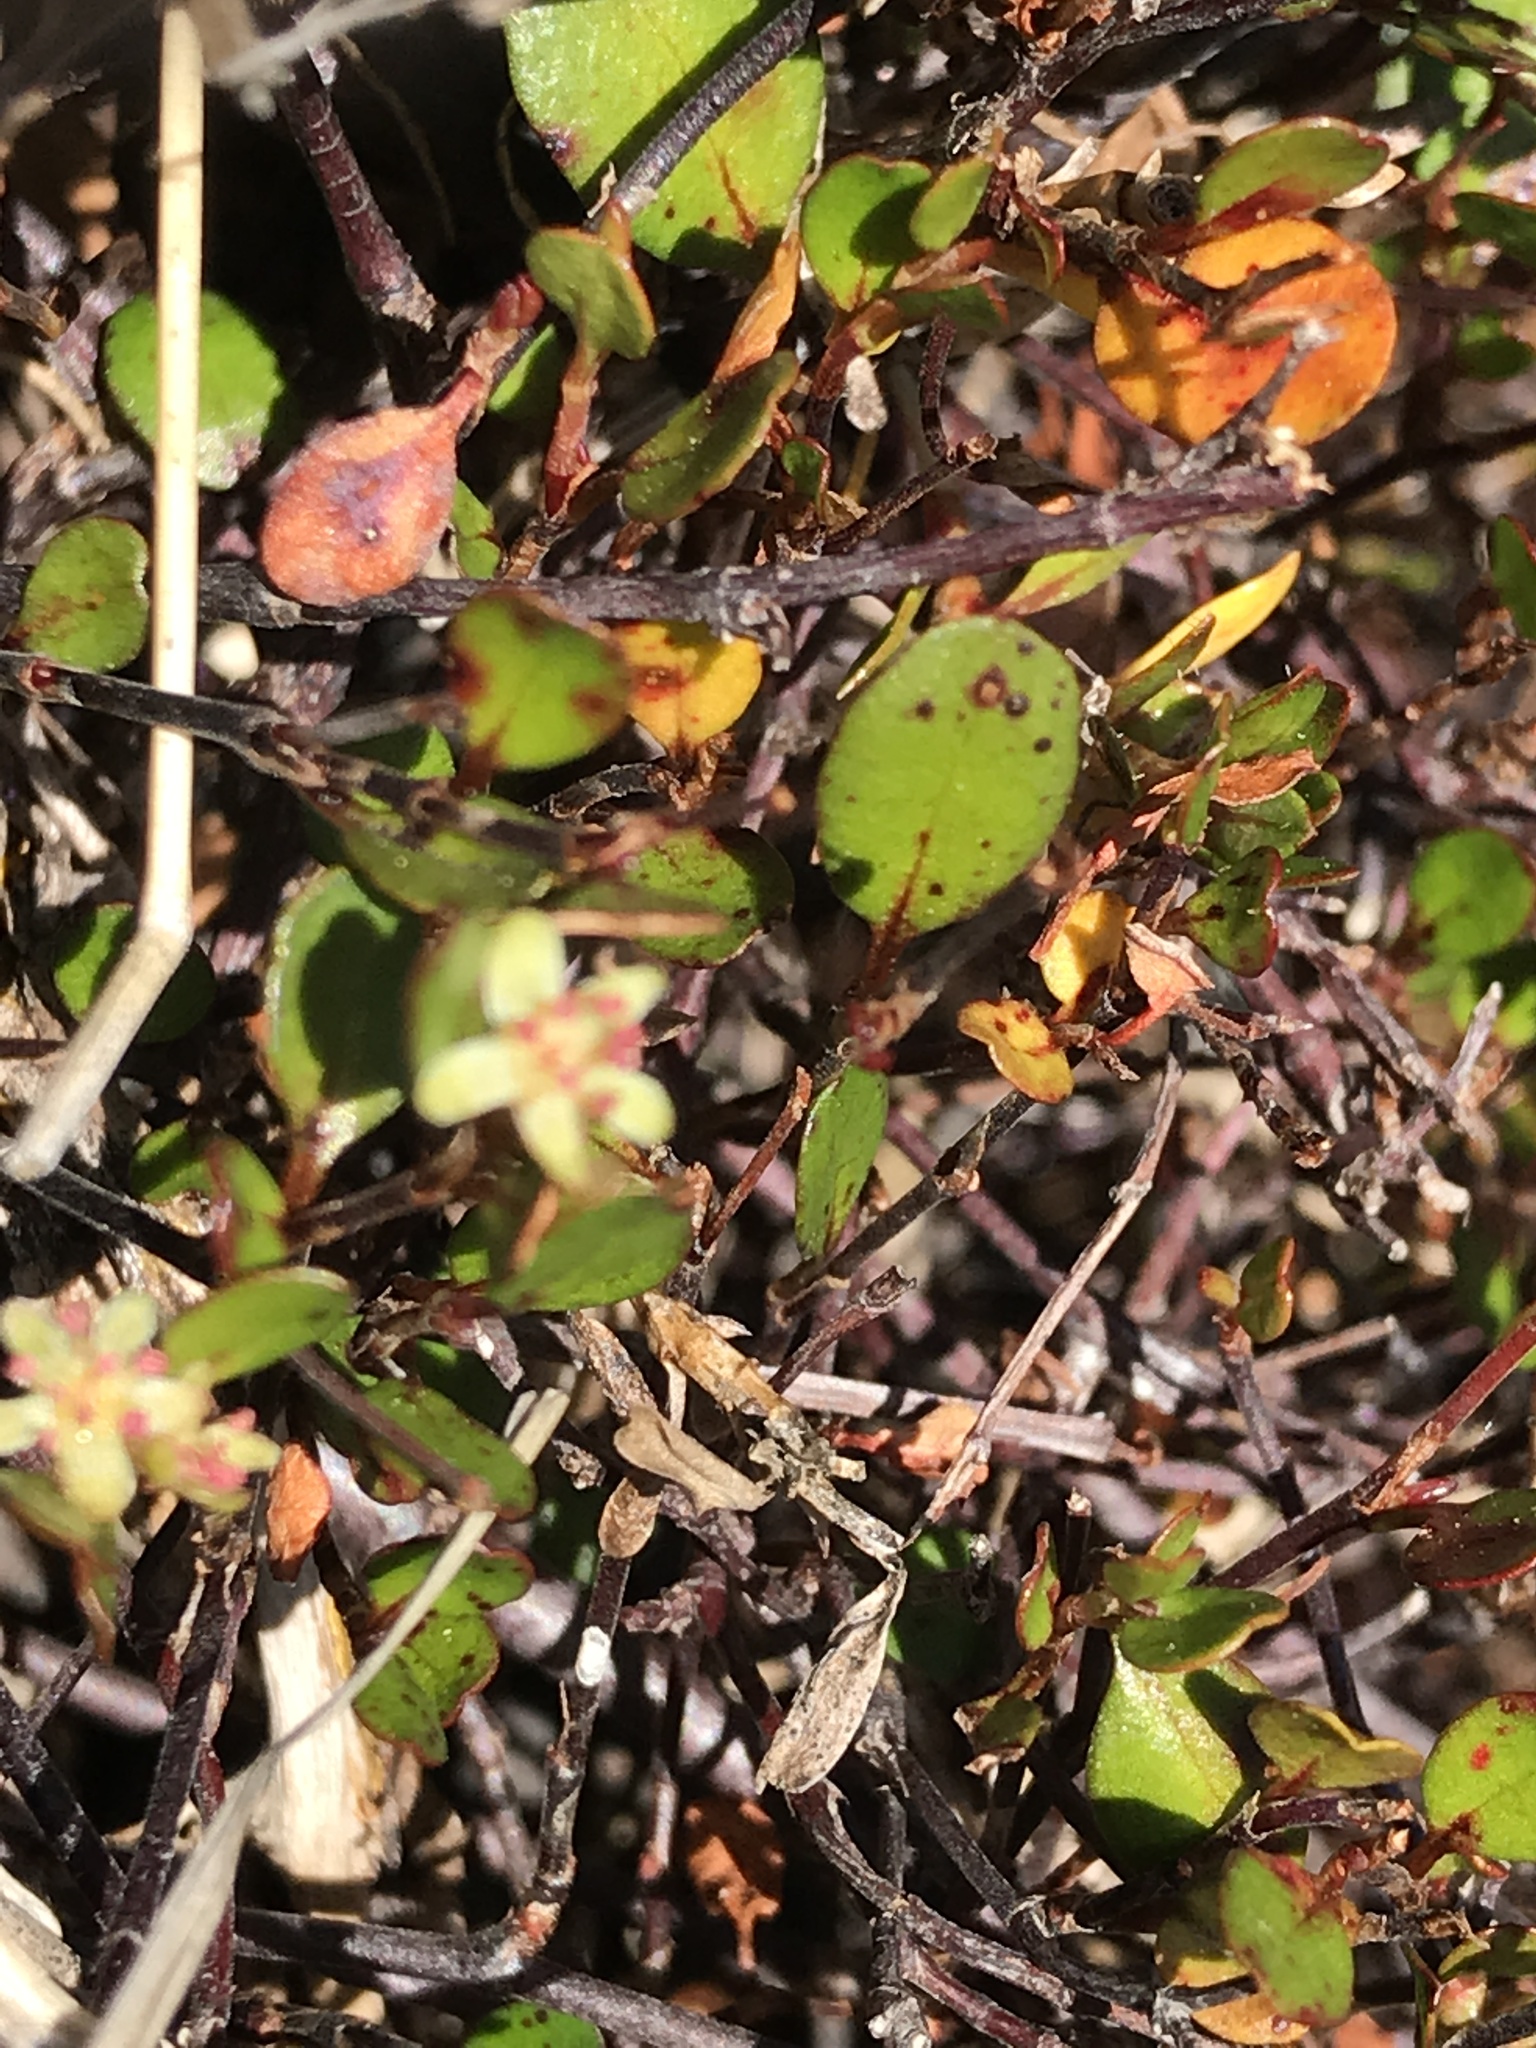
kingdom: Plantae
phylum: Tracheophyta
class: Magnoliopsida
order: Caryophyllales
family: Polygonaceae
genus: Muehlenbeckia
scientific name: Muehlenbeckia axillaris
